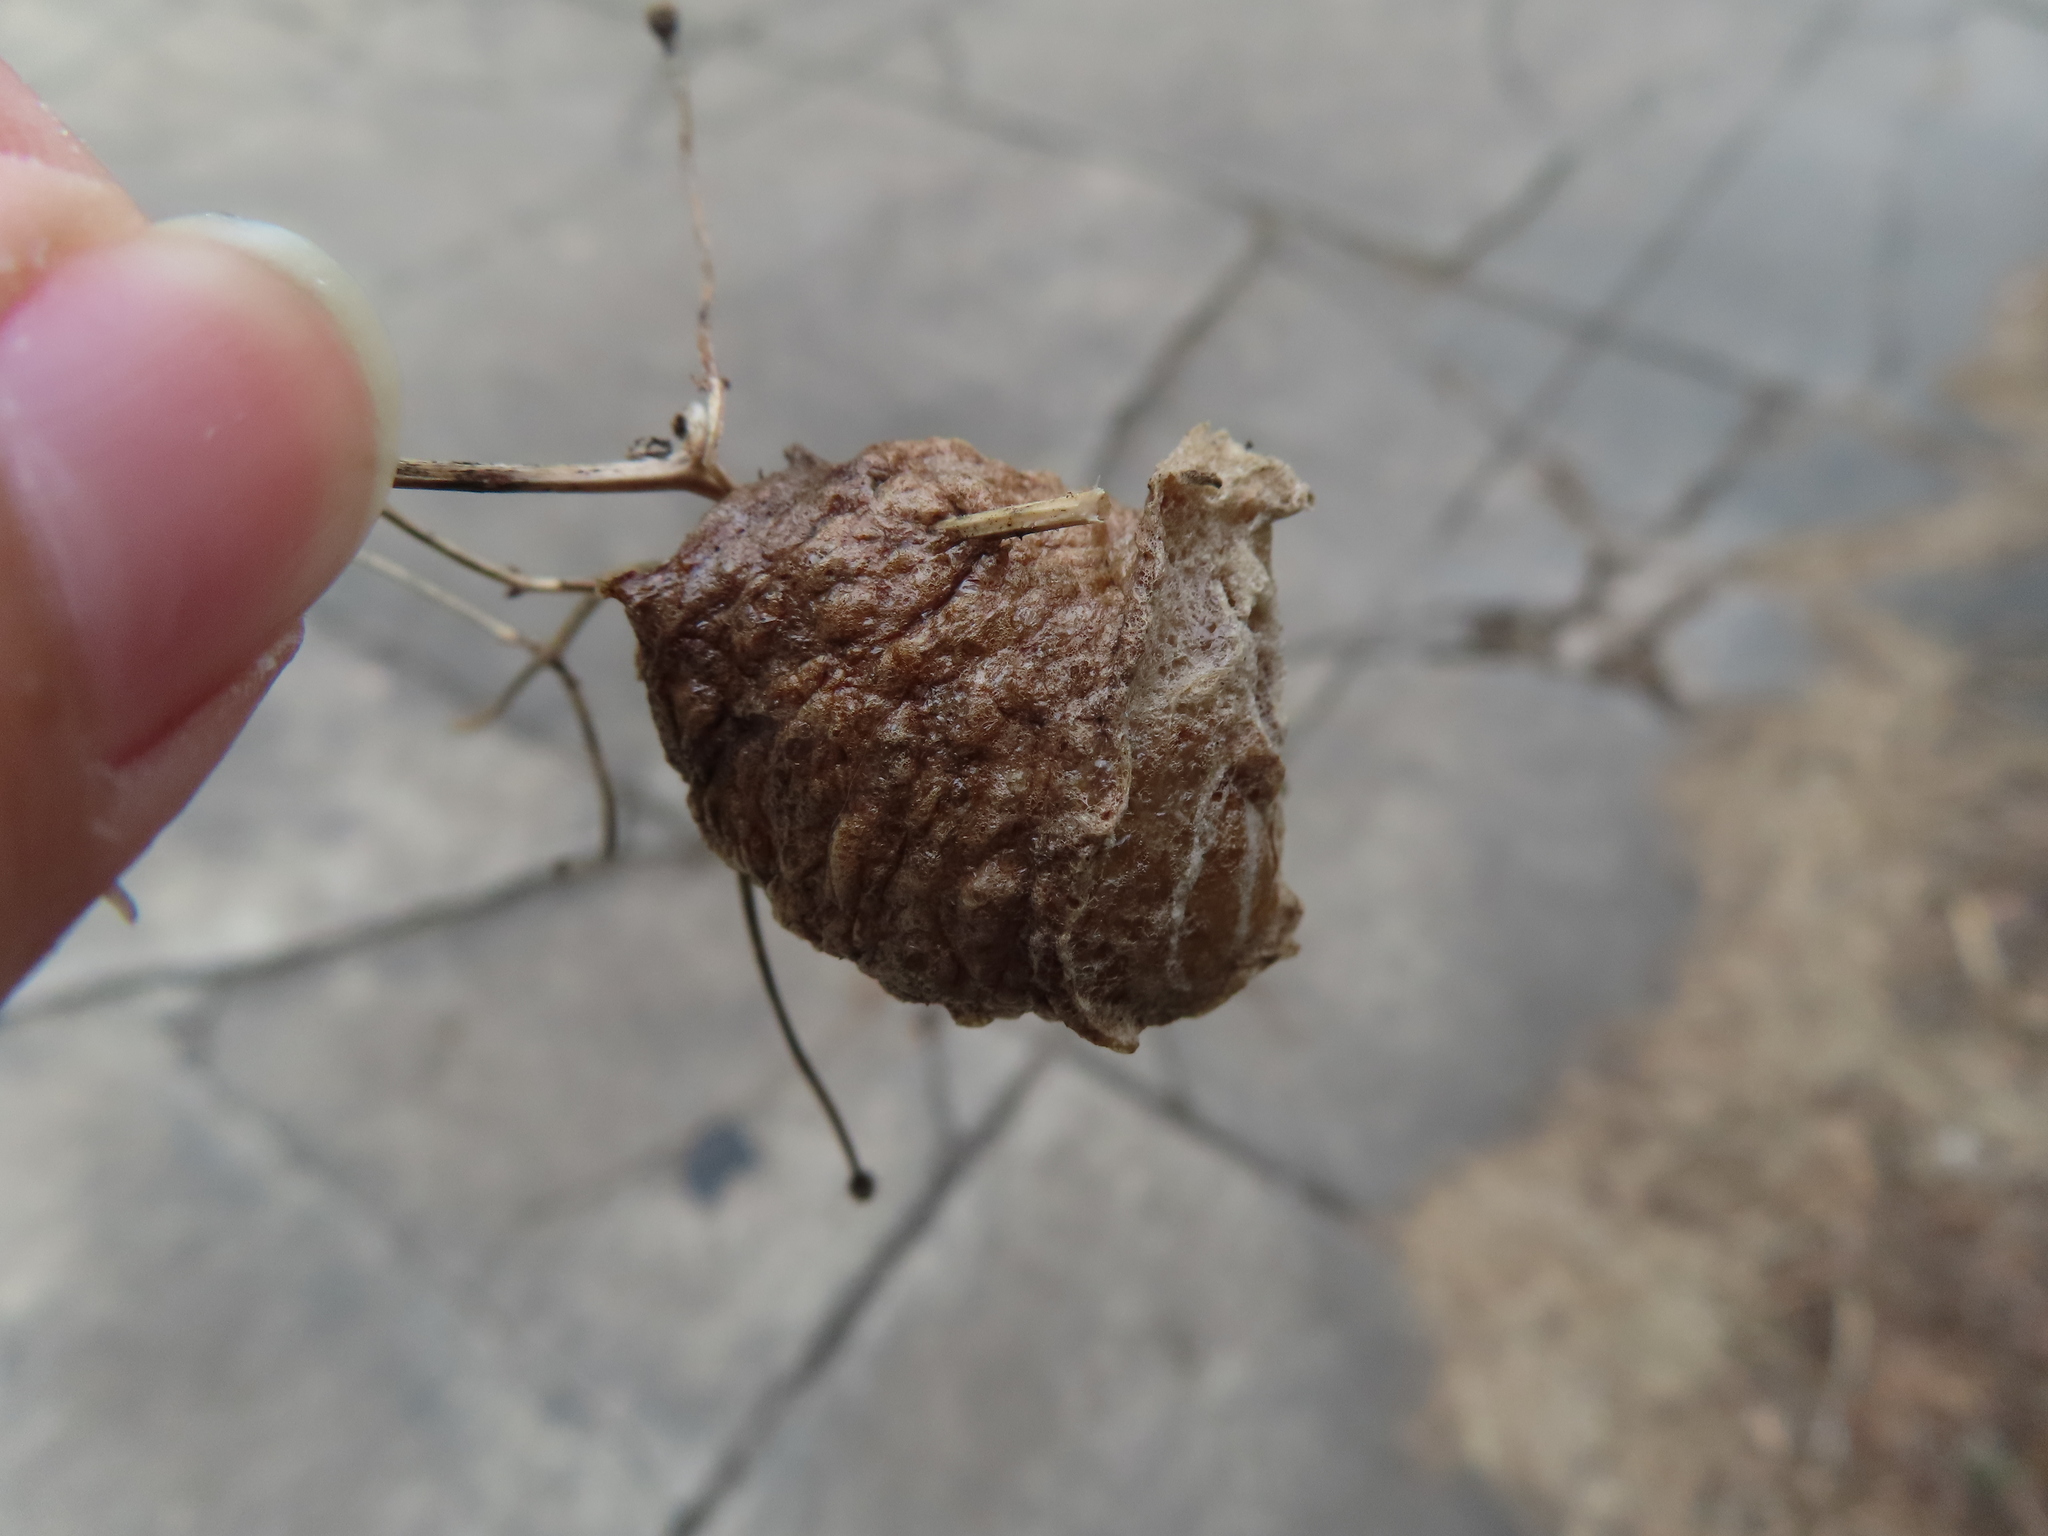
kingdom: Animalia
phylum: Arthropoda
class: Insecta
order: Mantodea
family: Mantidae
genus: Tenodera
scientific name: Tenodera sinensis
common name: Chinese mantis
